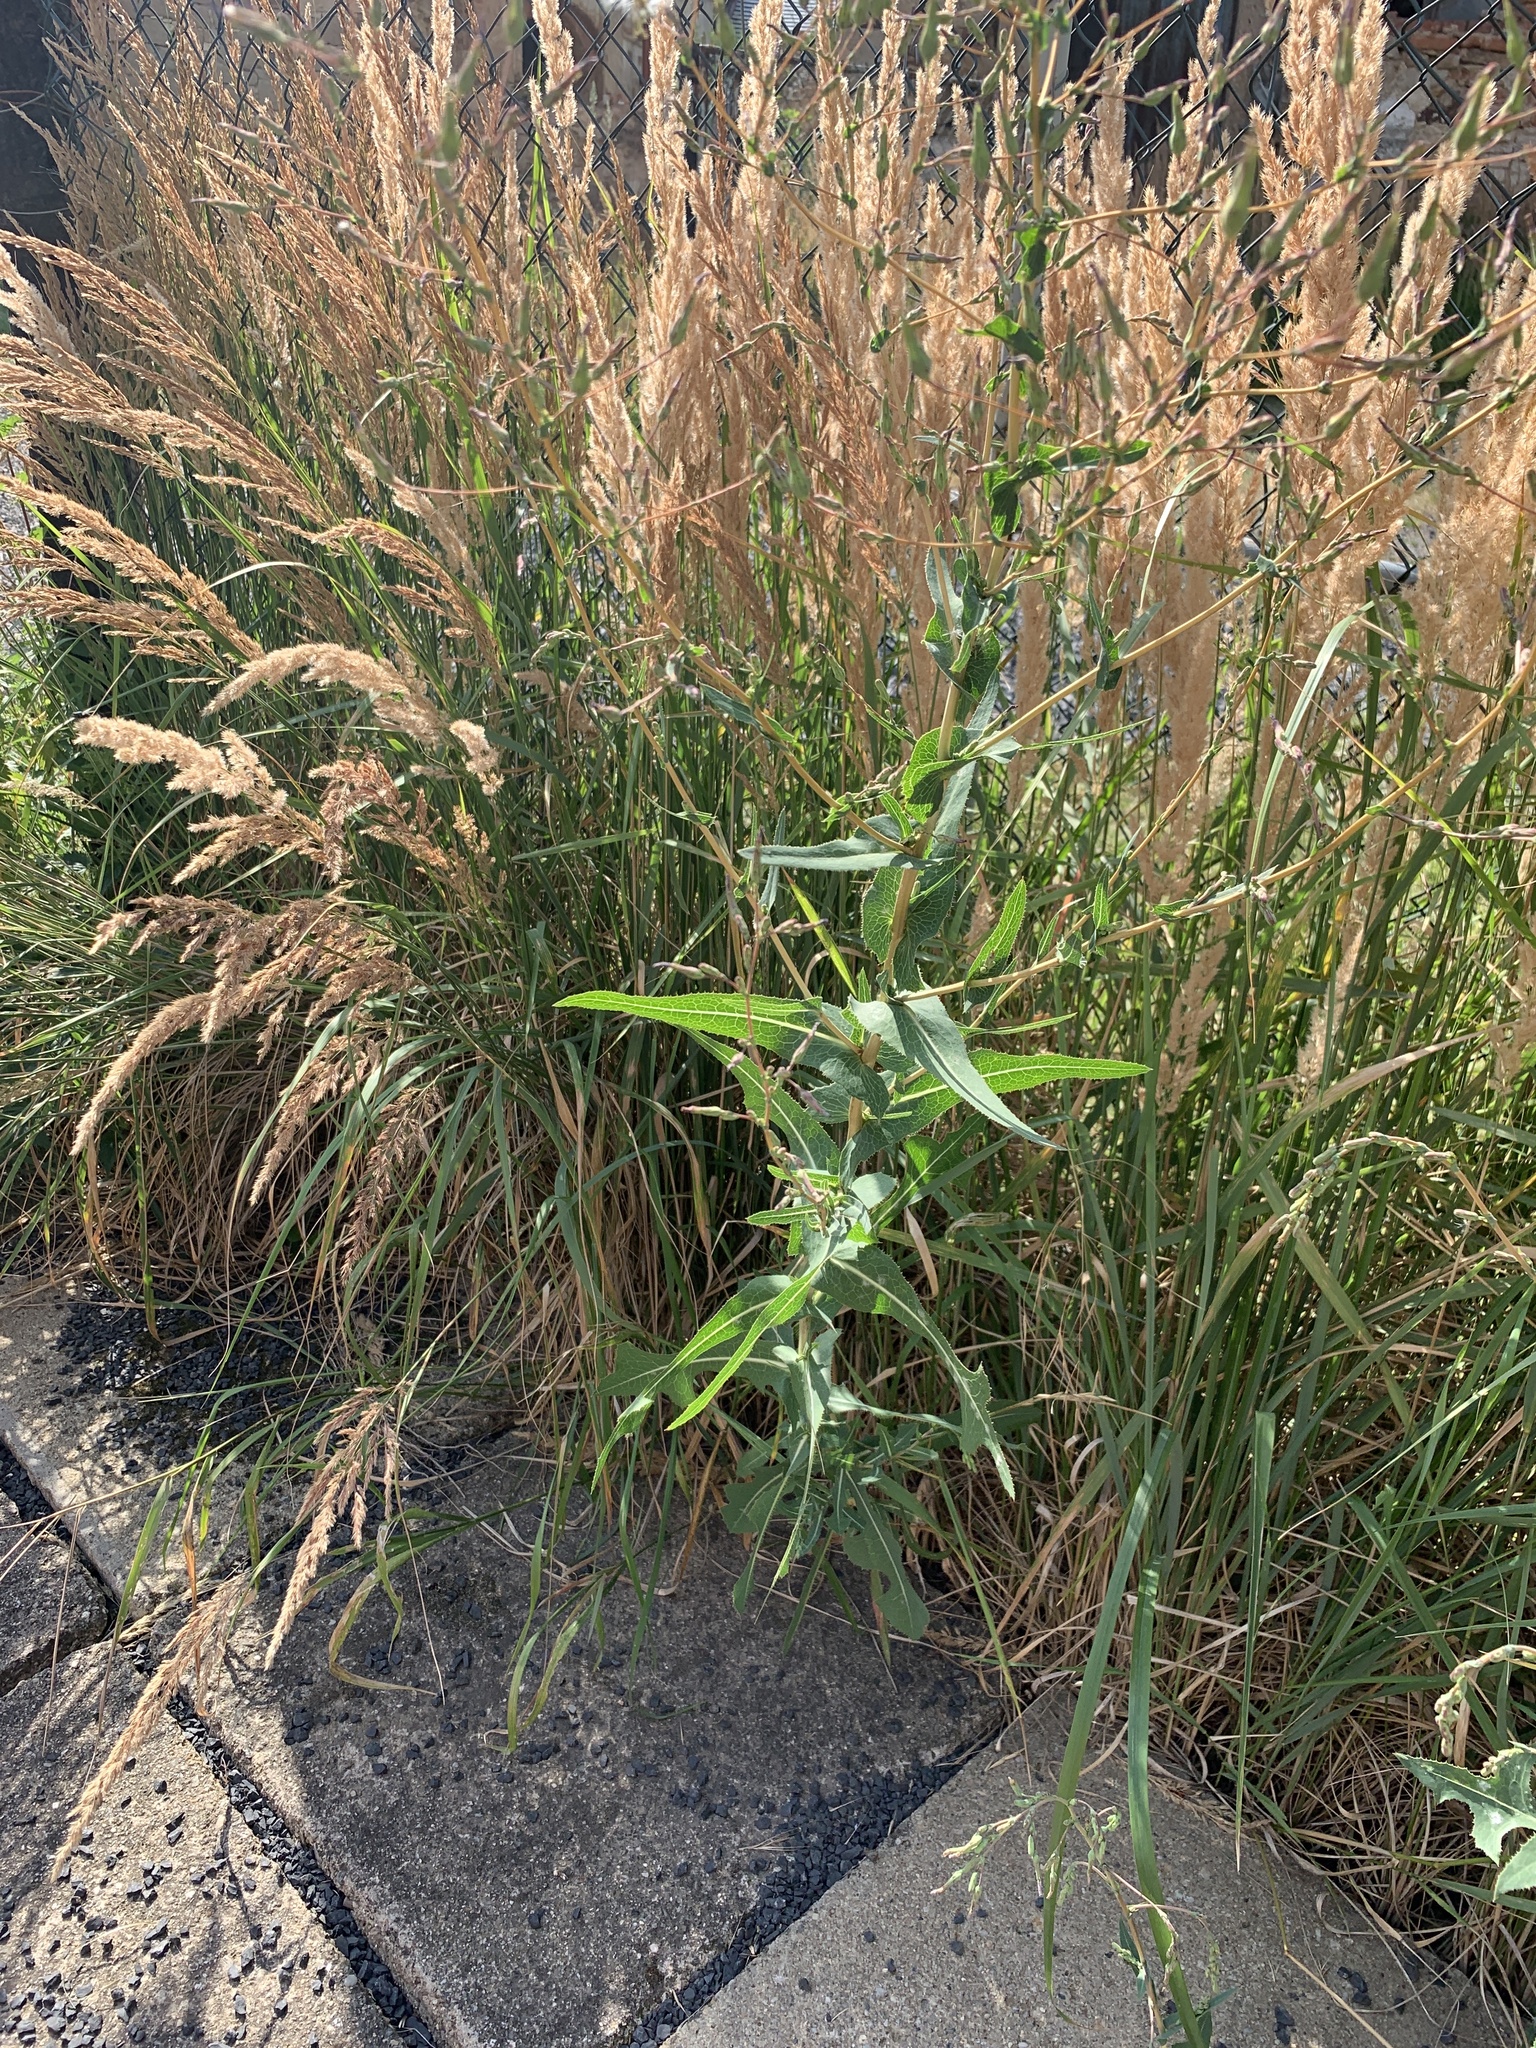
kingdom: Plantae
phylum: Tracheophyta
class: Magnoliopsida
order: Asterales
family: Asteraceae
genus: Lactuca
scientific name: Lactuca serriola
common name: Prickly lettuce
